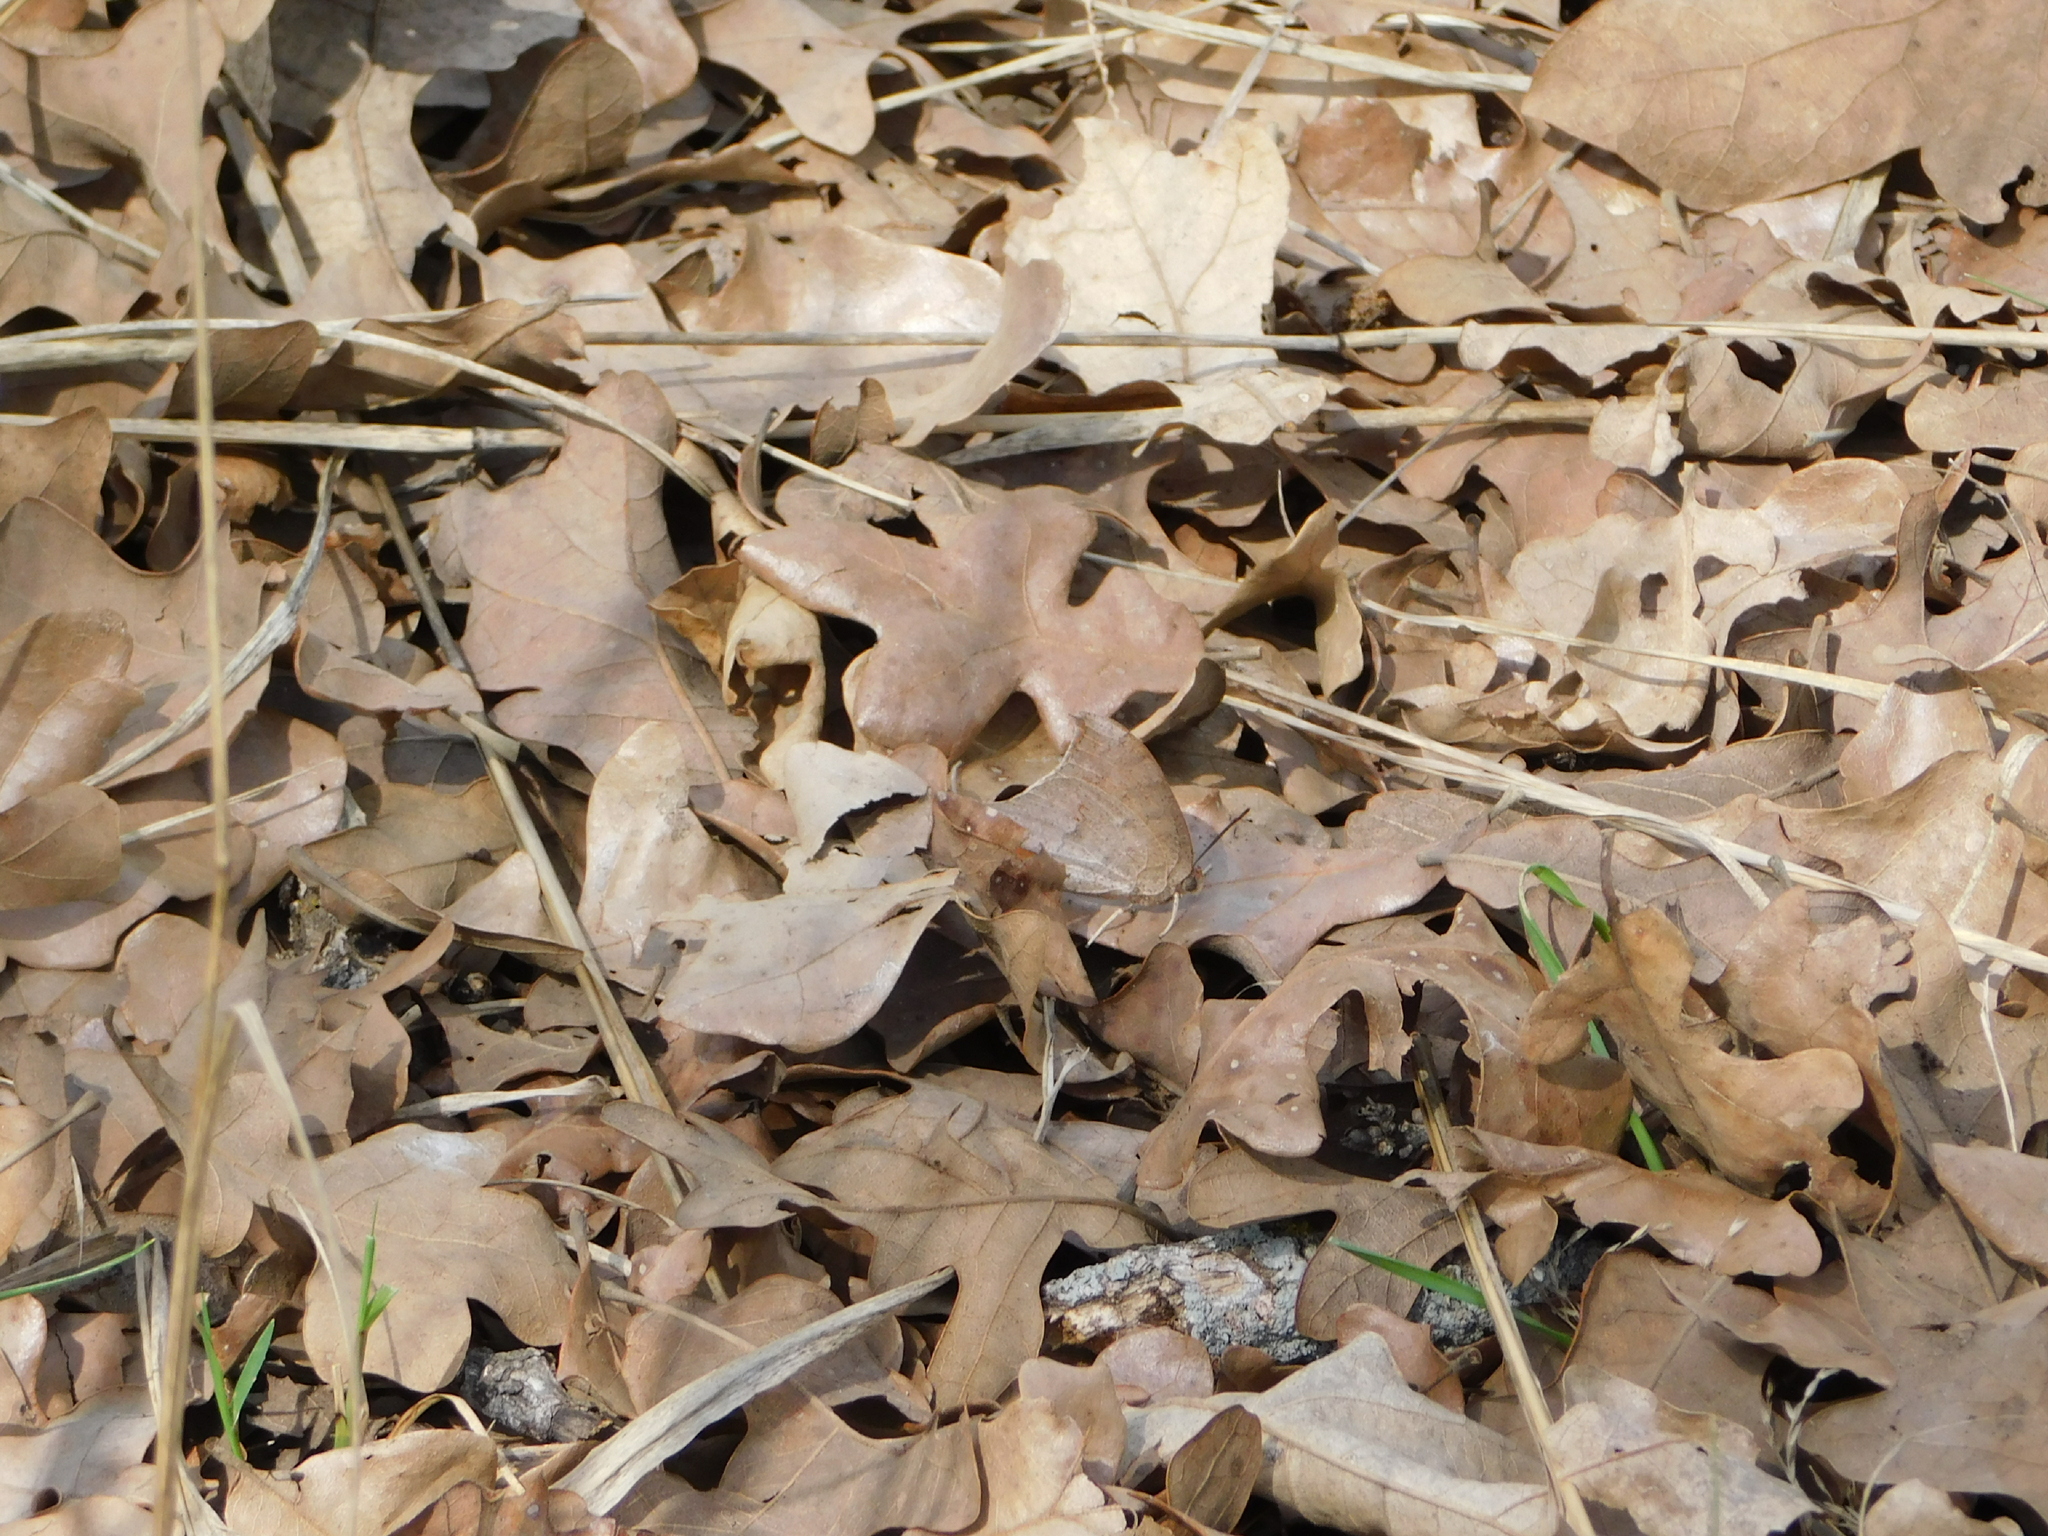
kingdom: Animalia
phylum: Arthropoda
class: Insecta
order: Lepidoptera
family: Nymphalidae
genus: Anaea
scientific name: Anaea andria
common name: Goatweed leafwing
